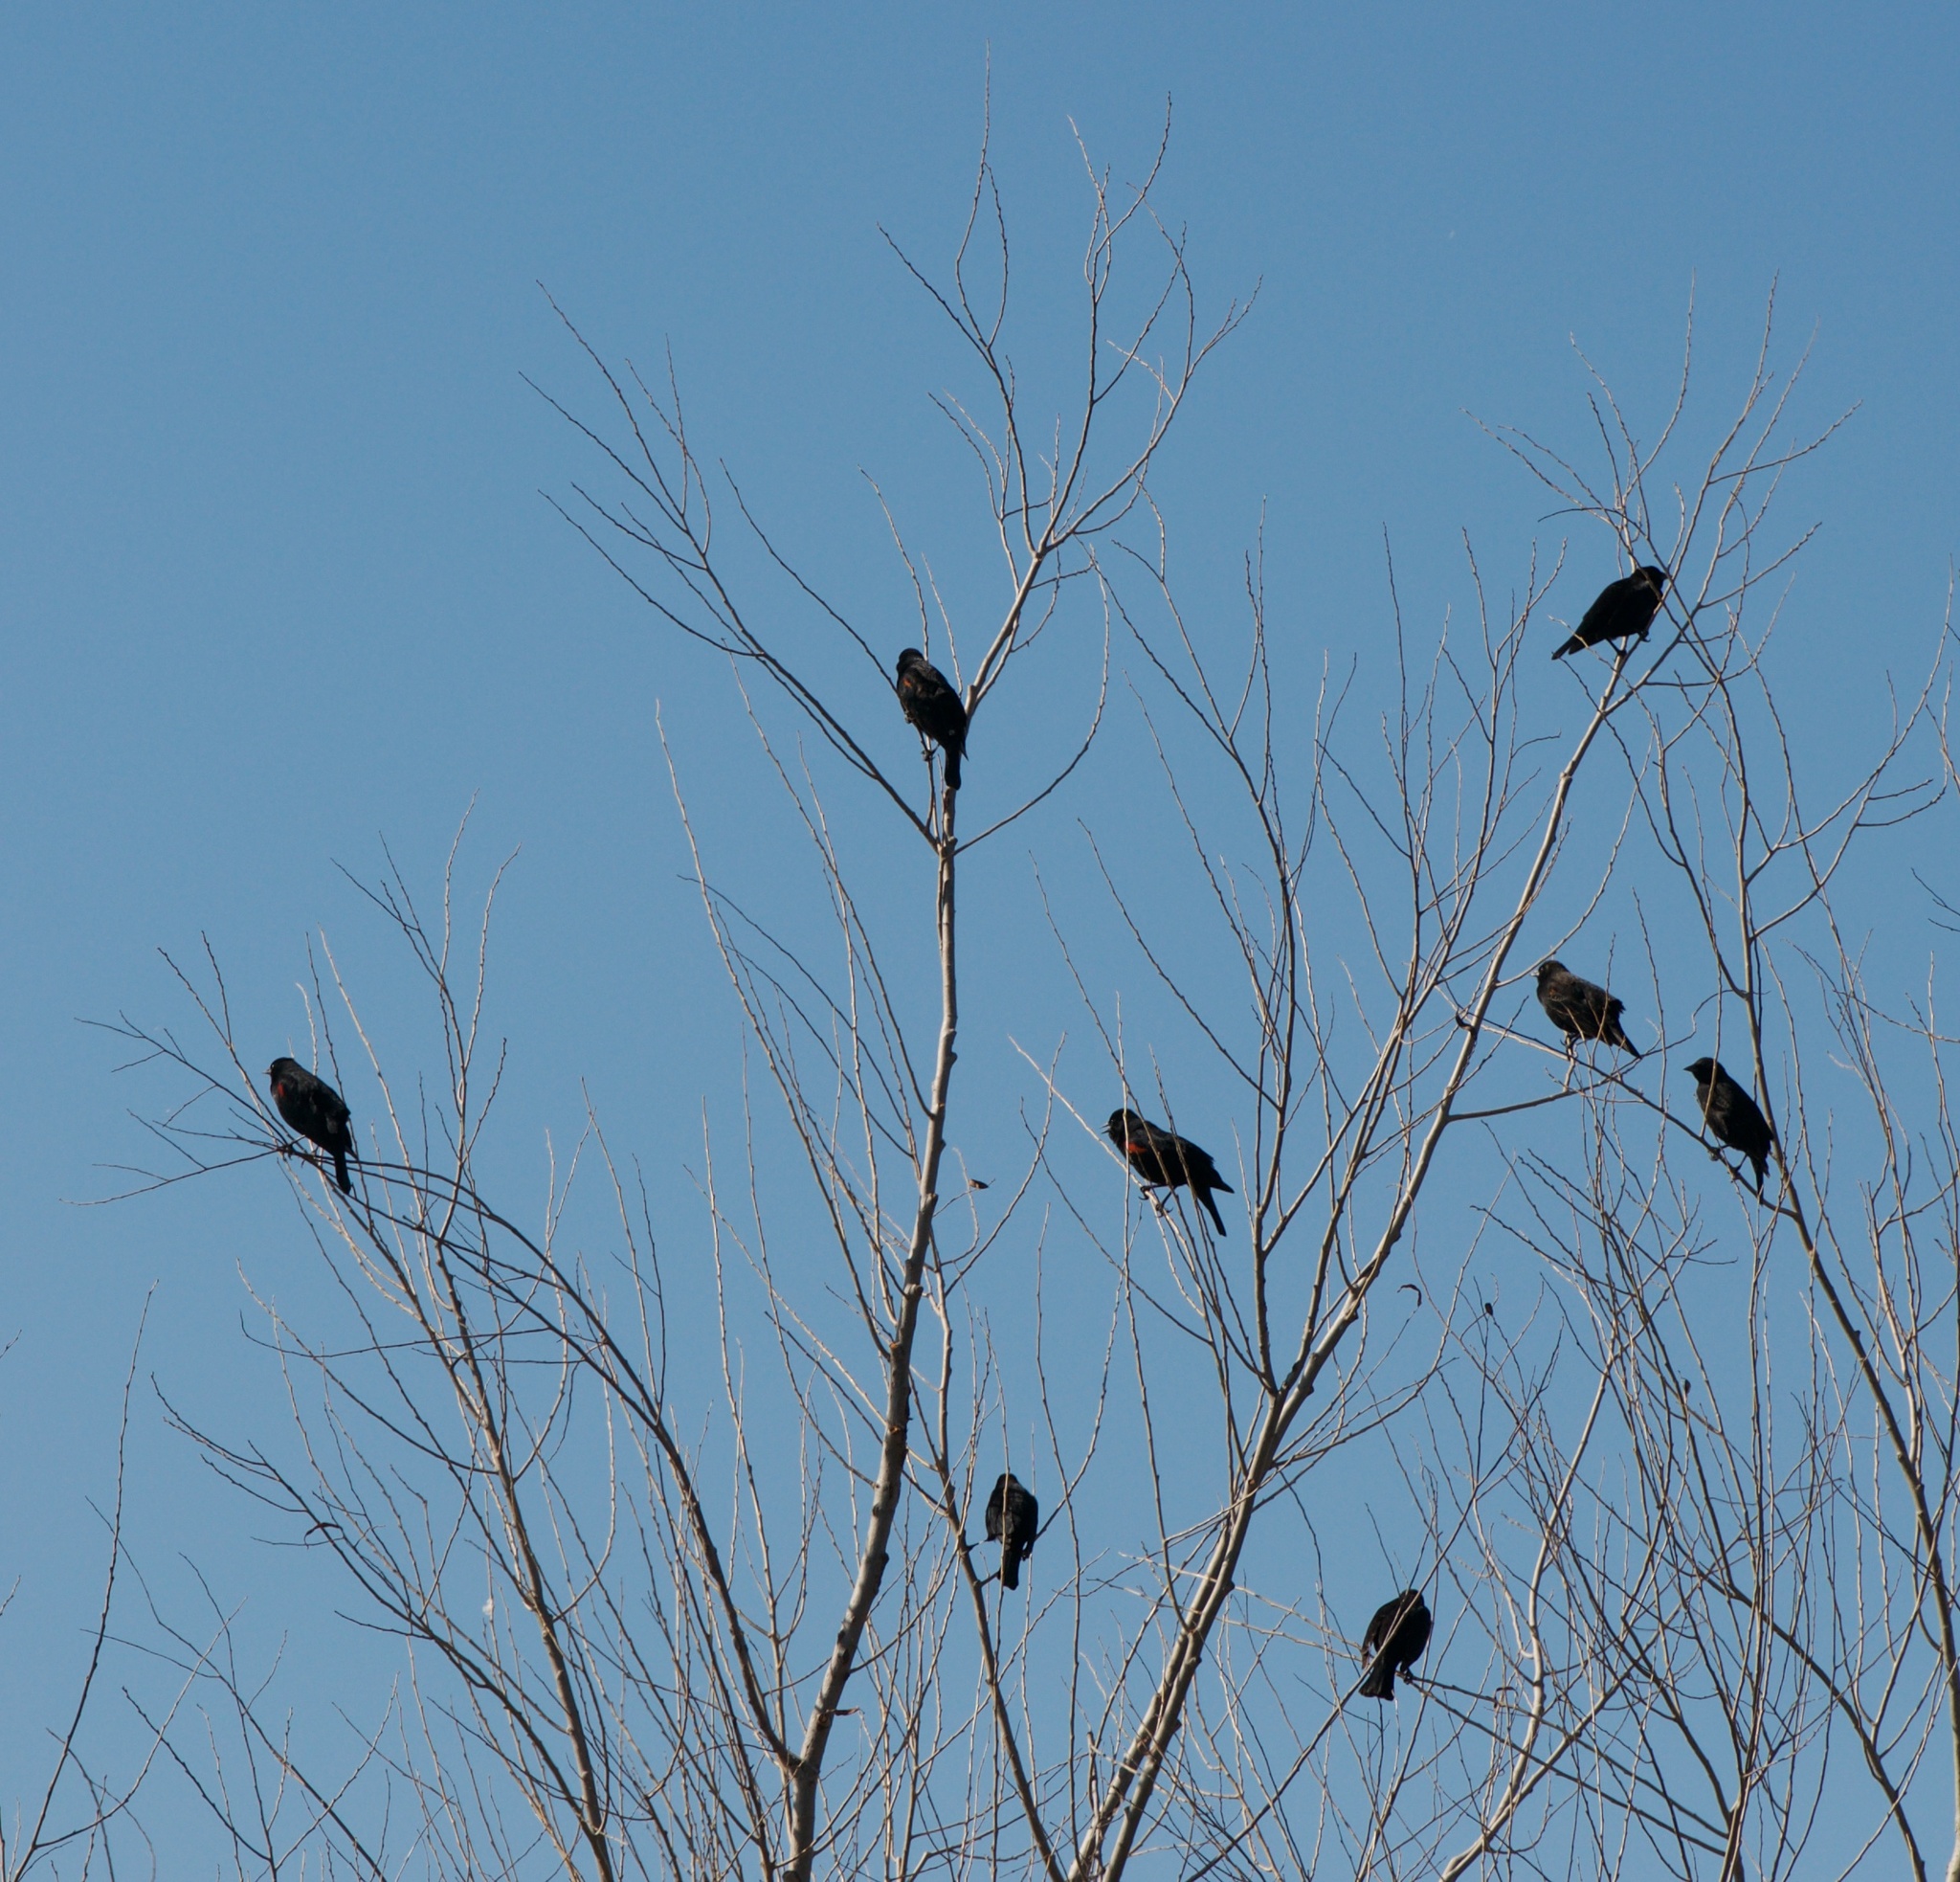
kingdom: Animalia
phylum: Chordata
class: Aves
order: Passeriformes
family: Icteridae
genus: Agelaius
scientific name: Agelaius phoeniceus
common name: Red-winged blackbird
